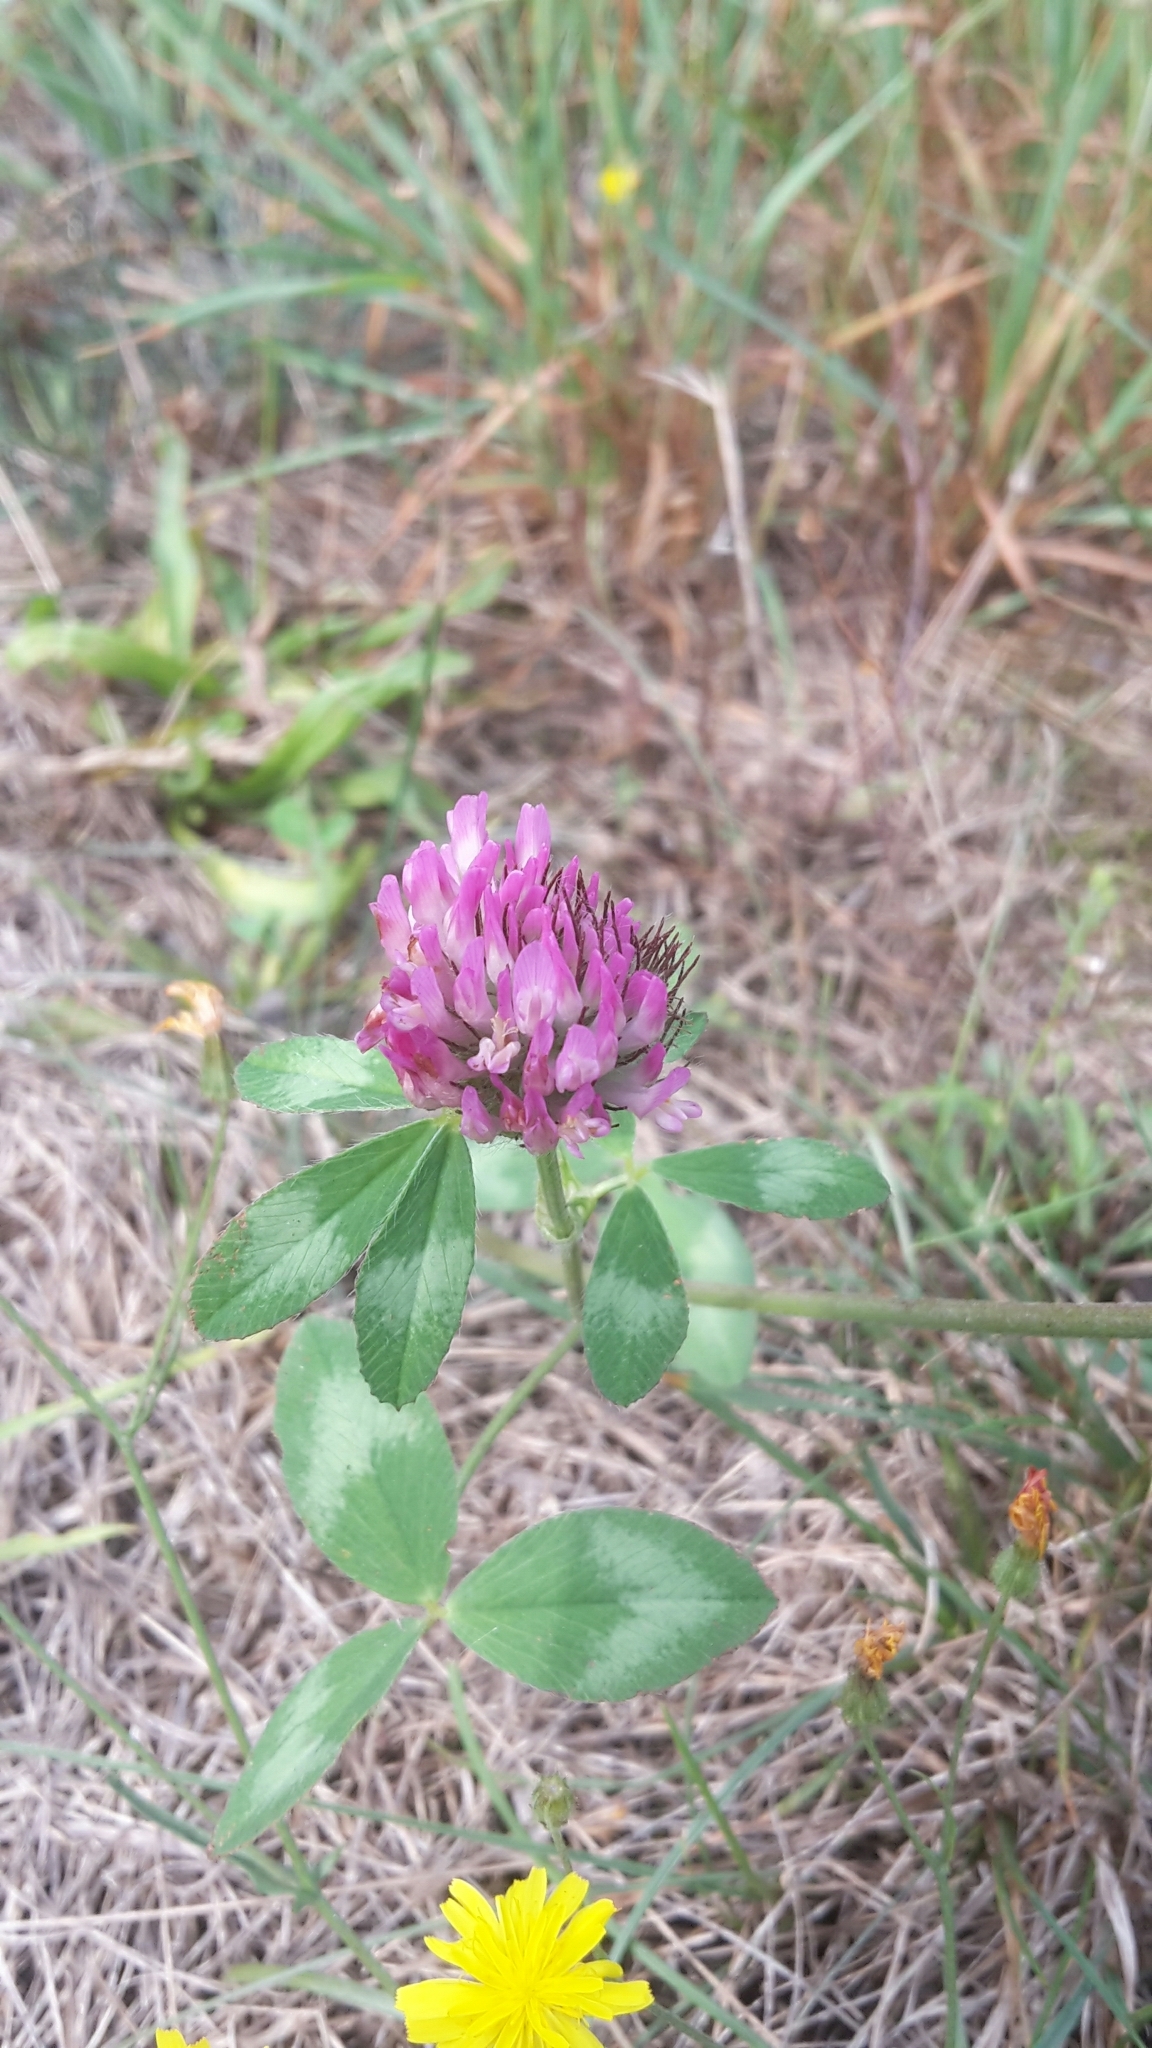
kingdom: Plantae
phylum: Tracheophyta
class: Magnoliopsida
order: Fabales
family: Fabaceae
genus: Trifolium
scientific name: Trifolium pratense
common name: Red clover
